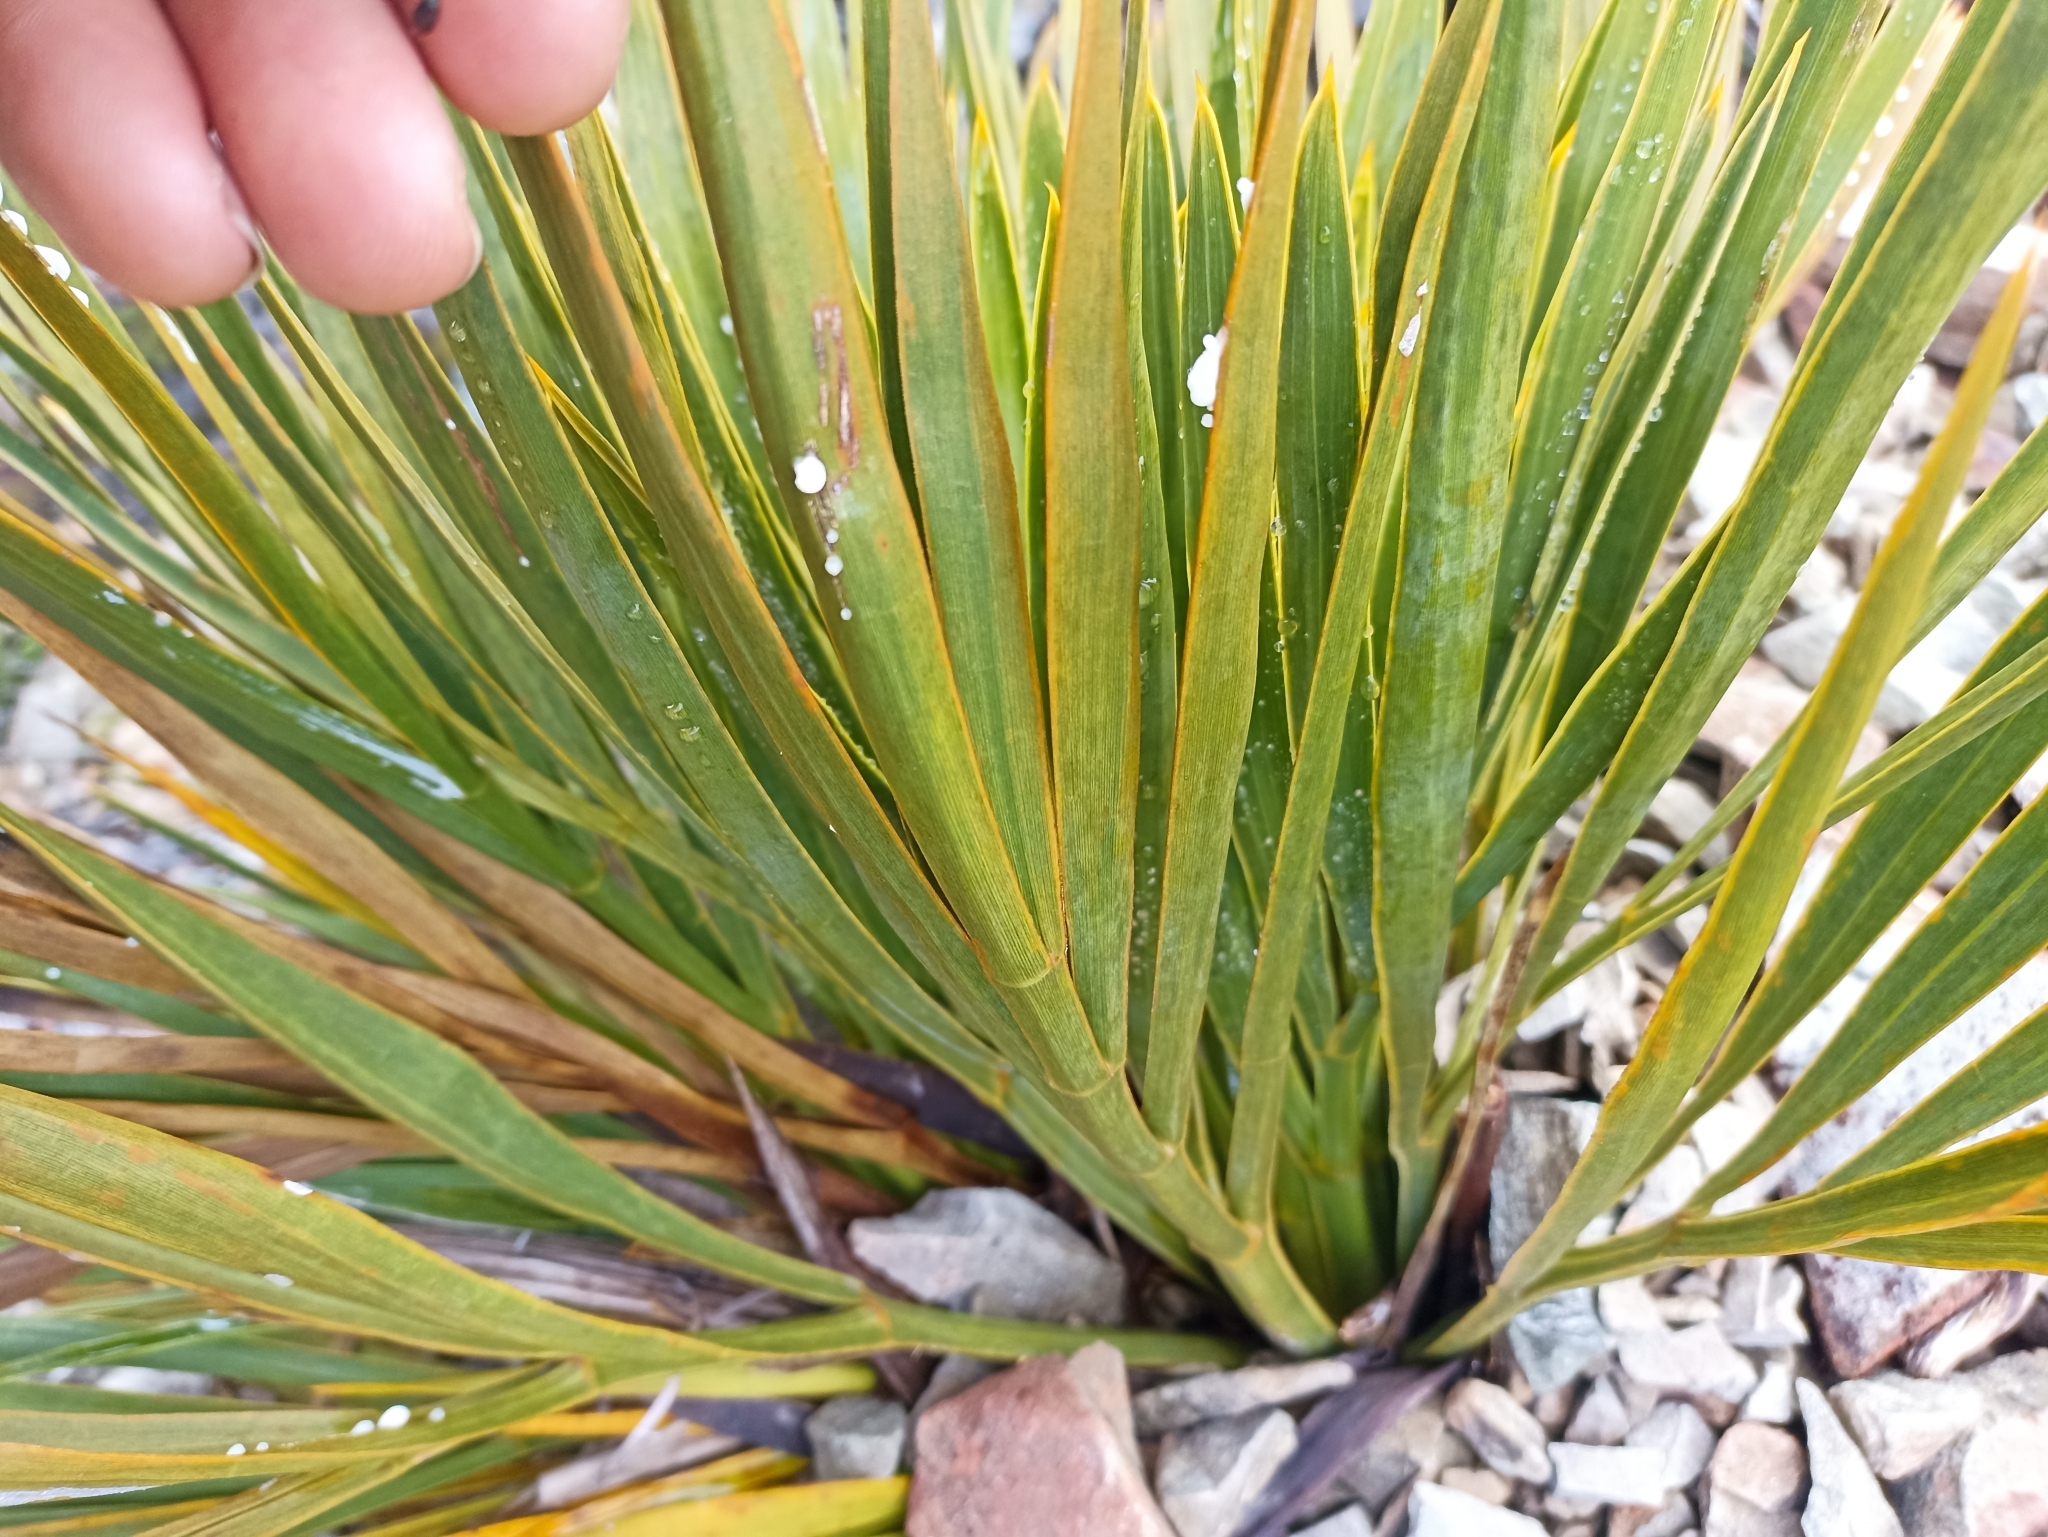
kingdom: Plantae
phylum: Tracheophyta
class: Magnoliopsida
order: Apiales
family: Apiaceae
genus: Aciphylla
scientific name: Aciphylla aurea
